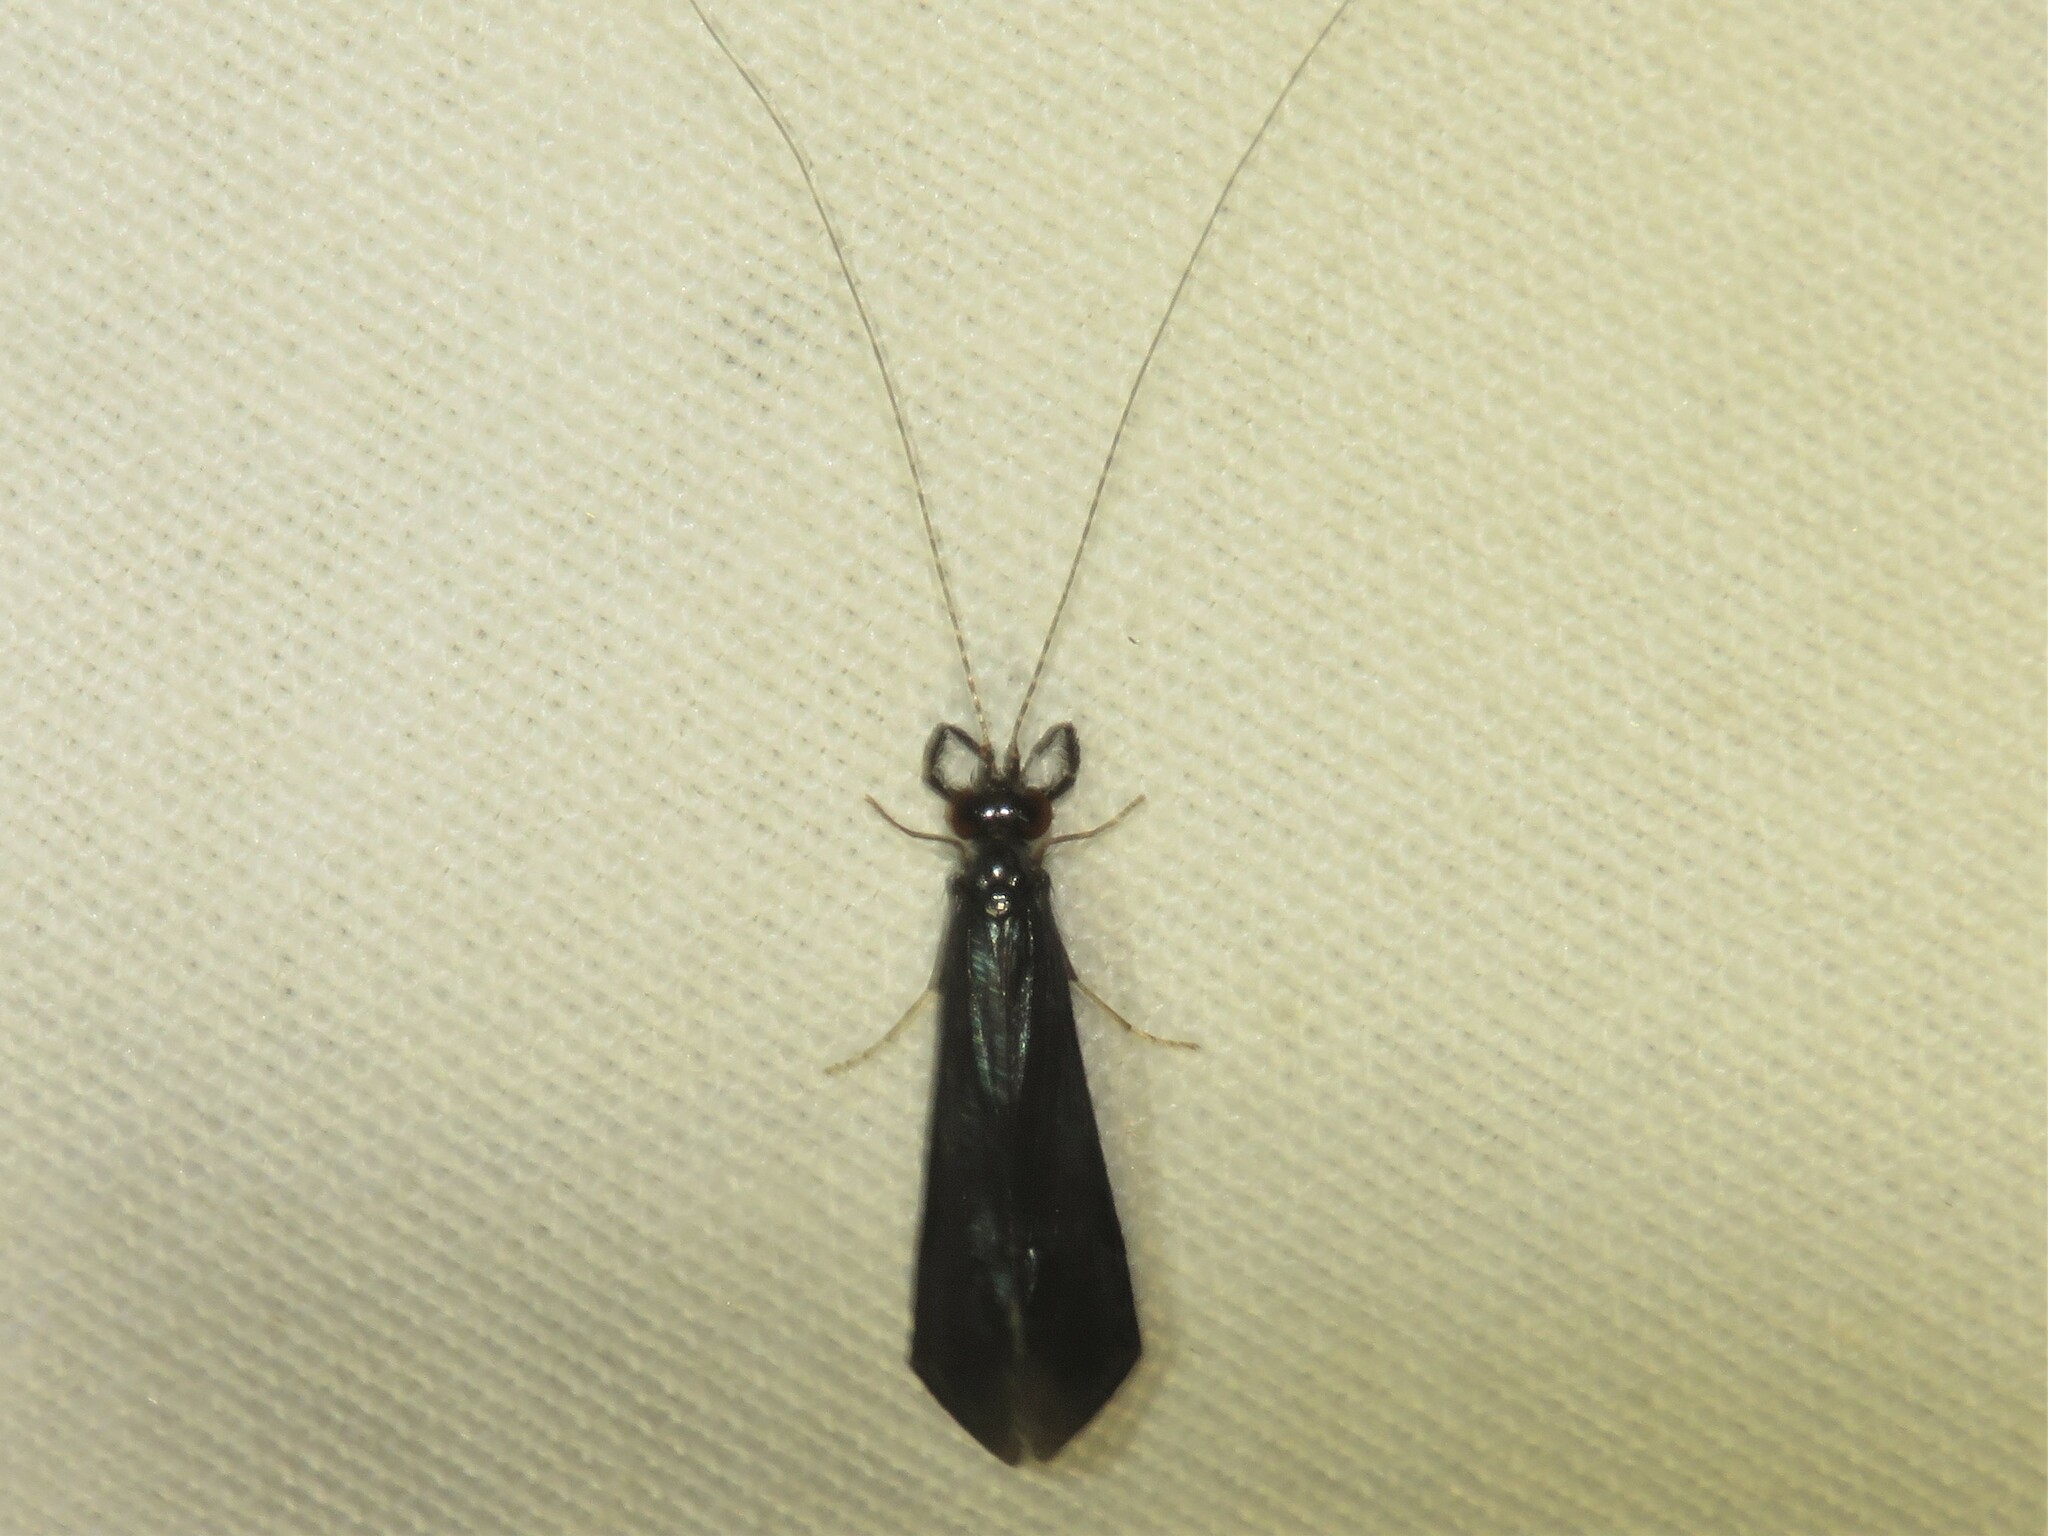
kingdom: Animalia
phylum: Arthropoda
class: Insecta
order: Trichoptera
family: Leptoceridae
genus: Mystacides
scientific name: Mystacides sepulchralis
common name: Black dancer caddisfly
